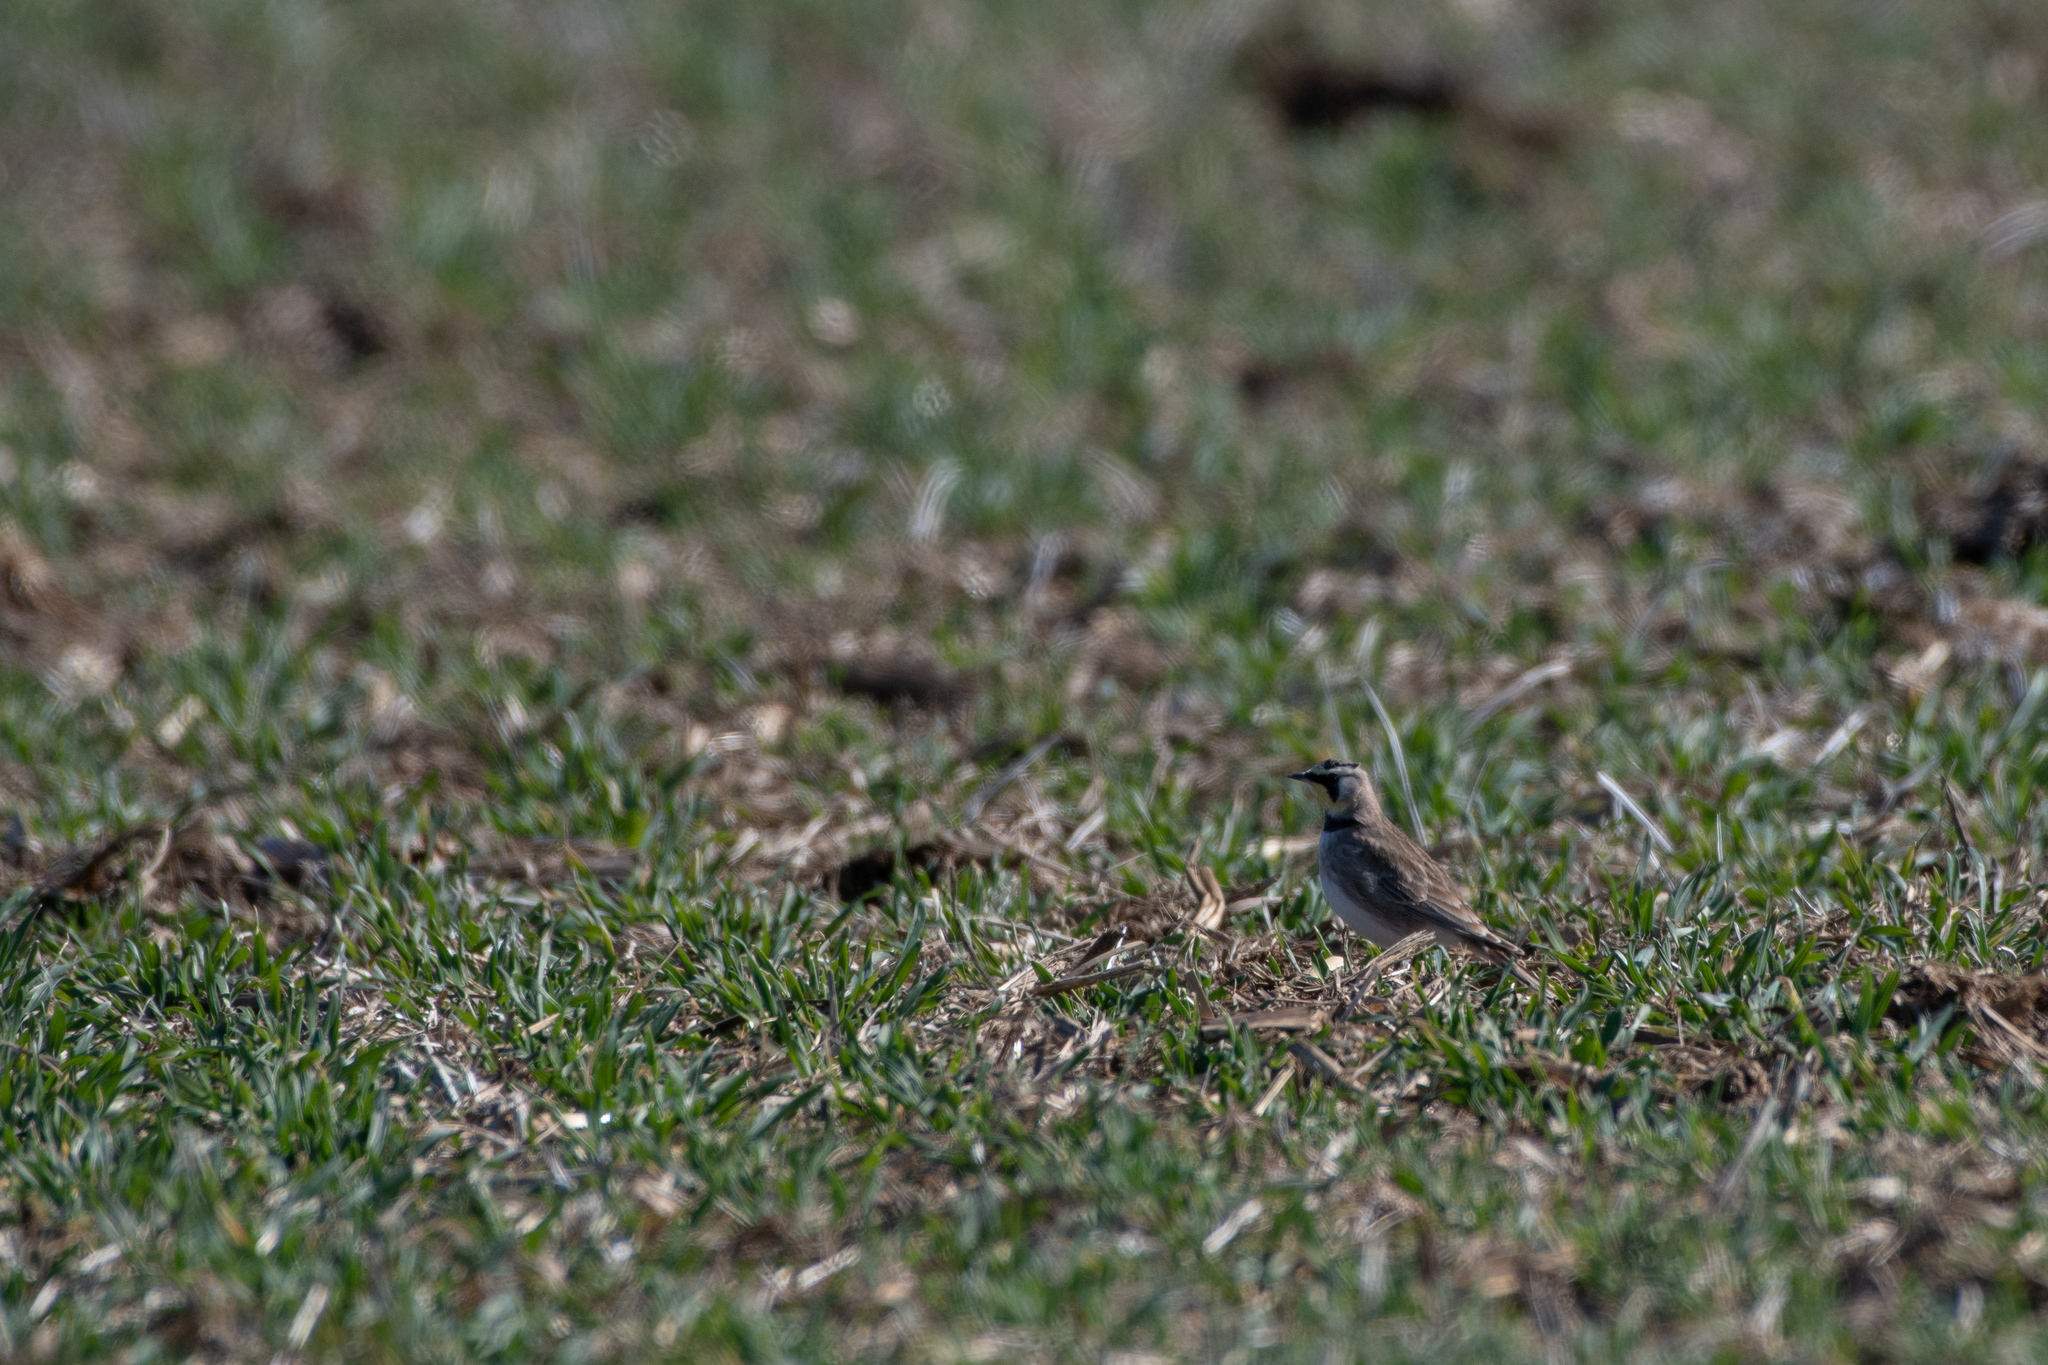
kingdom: Animalia
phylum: Chordata
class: Aves
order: Passeriformes
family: Alaudidae
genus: Eremophila
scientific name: Eremophila alpestris
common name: Horned lark
